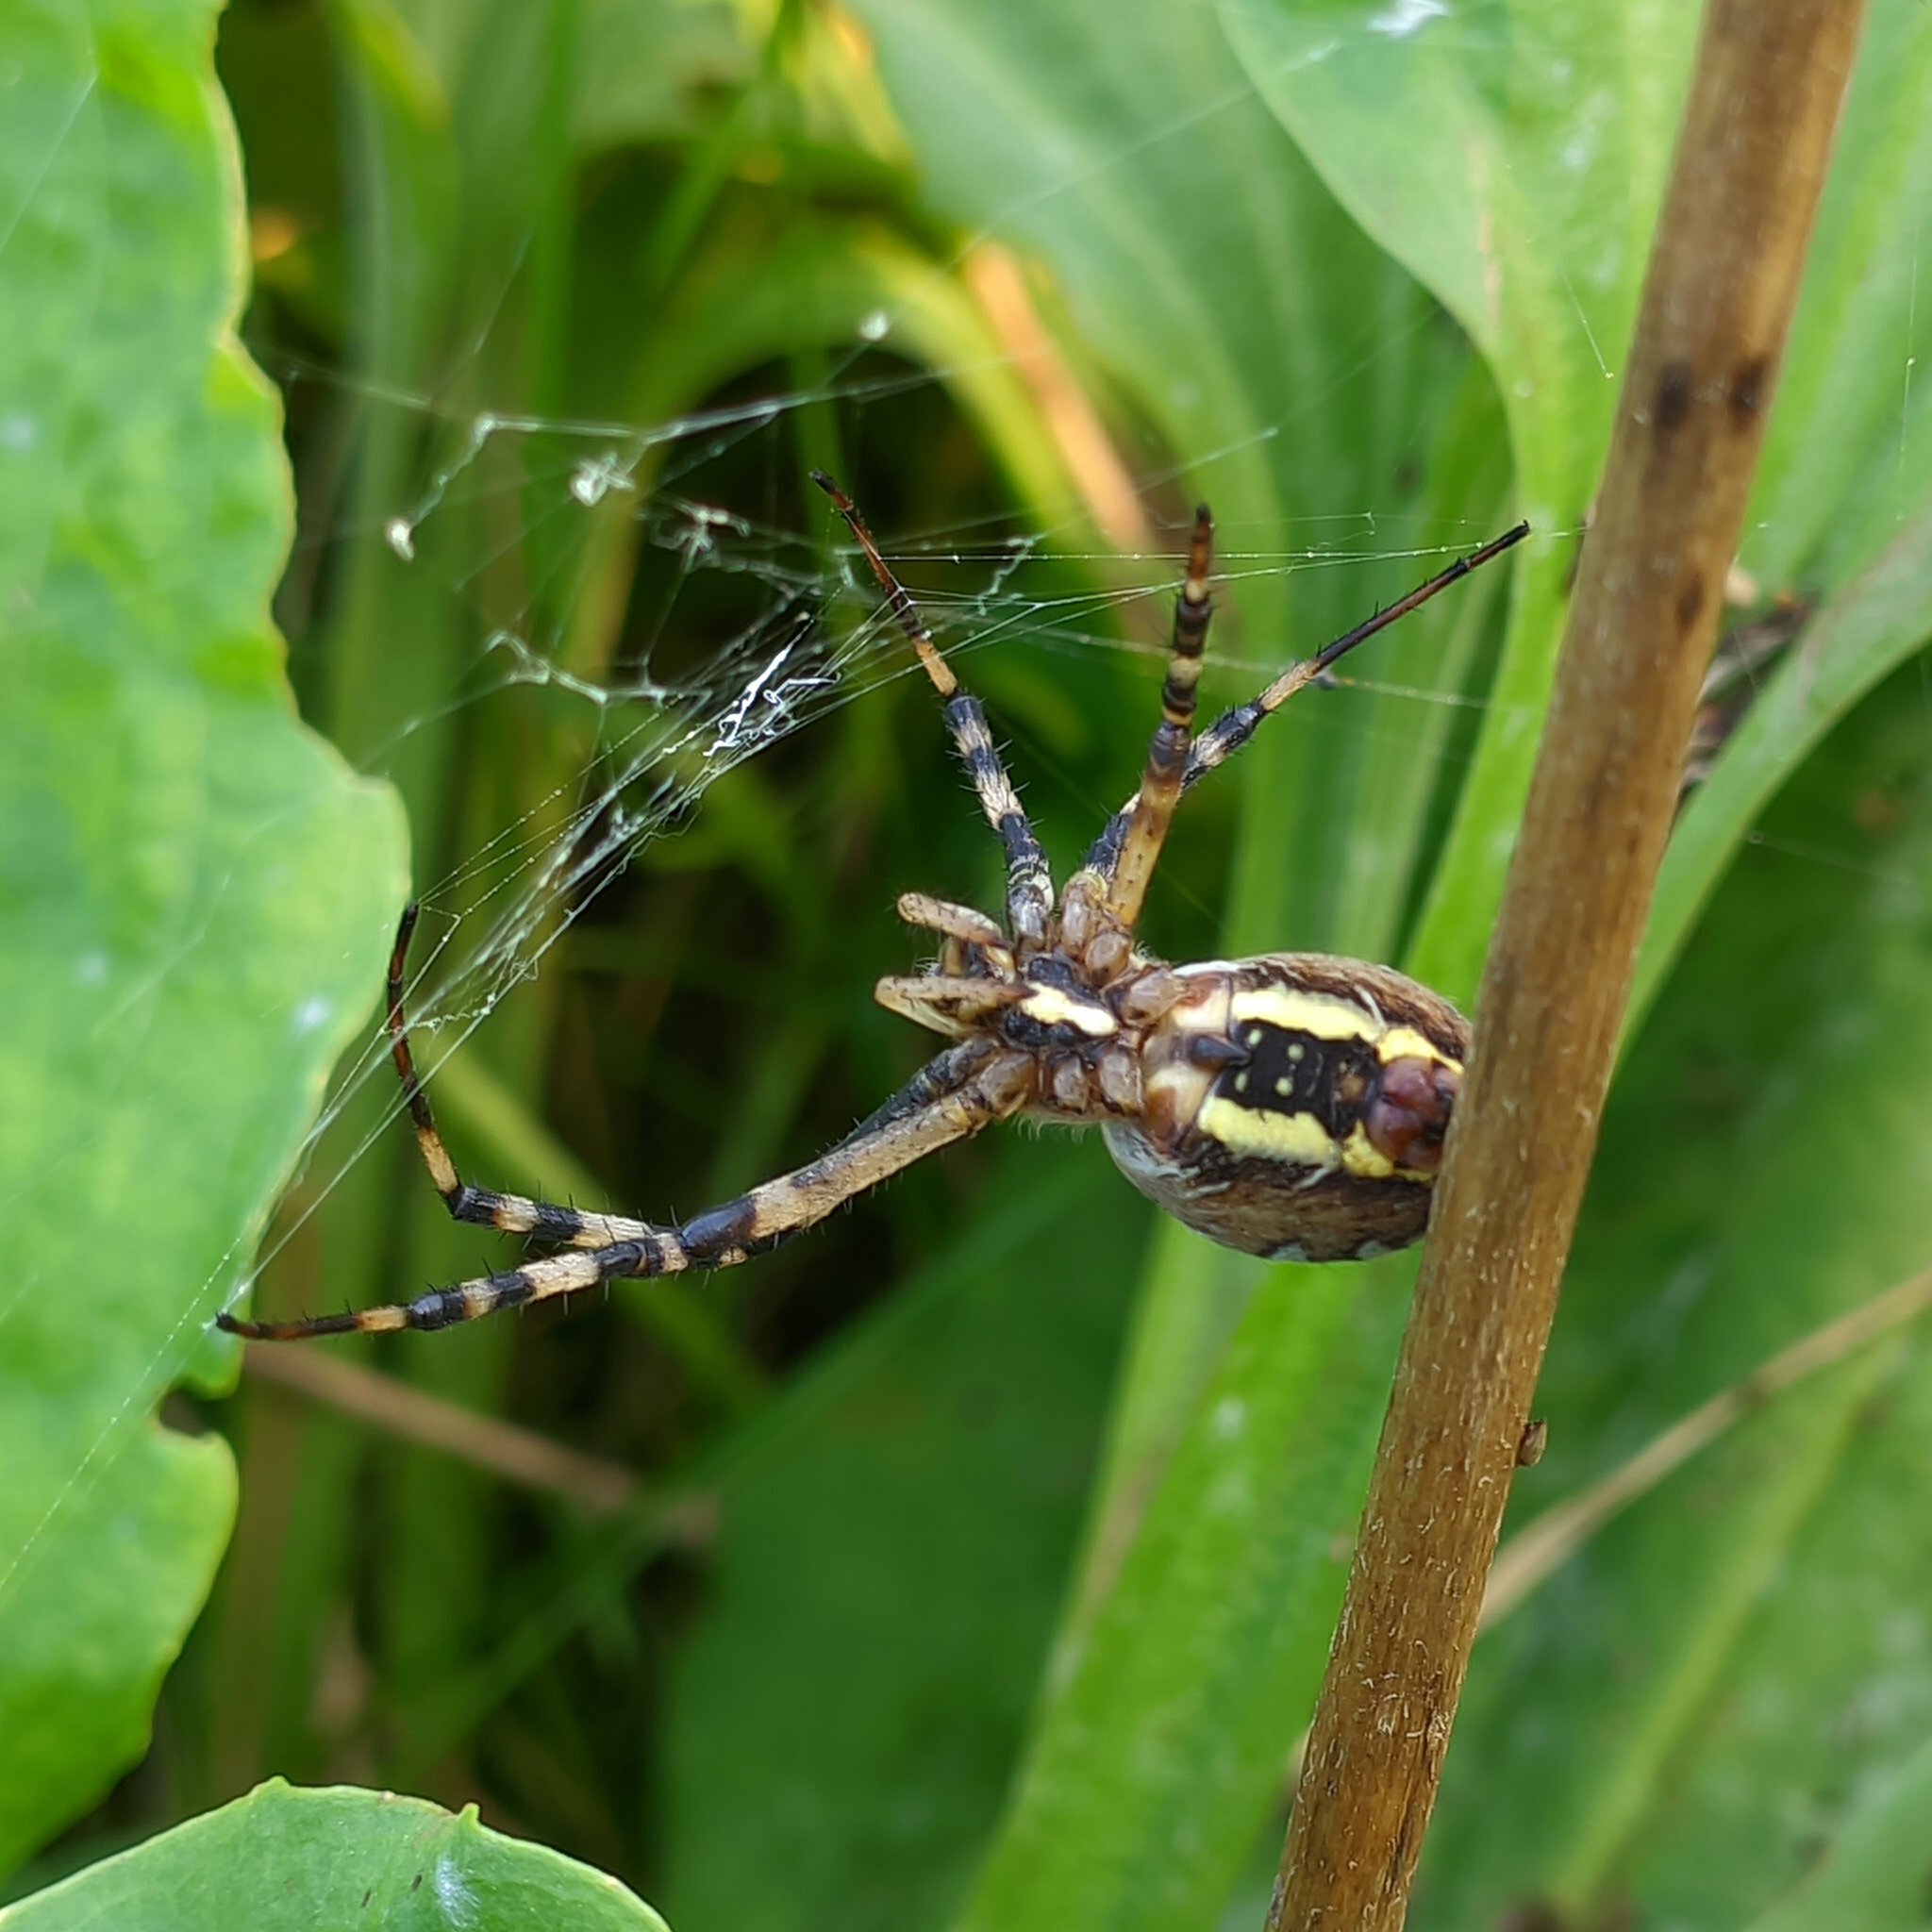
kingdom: Animalia
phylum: Arthropoda
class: Arachnida
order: Araneae
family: Araneidae
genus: Argiope
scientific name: Argiope bruennichi
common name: Wasp spider
